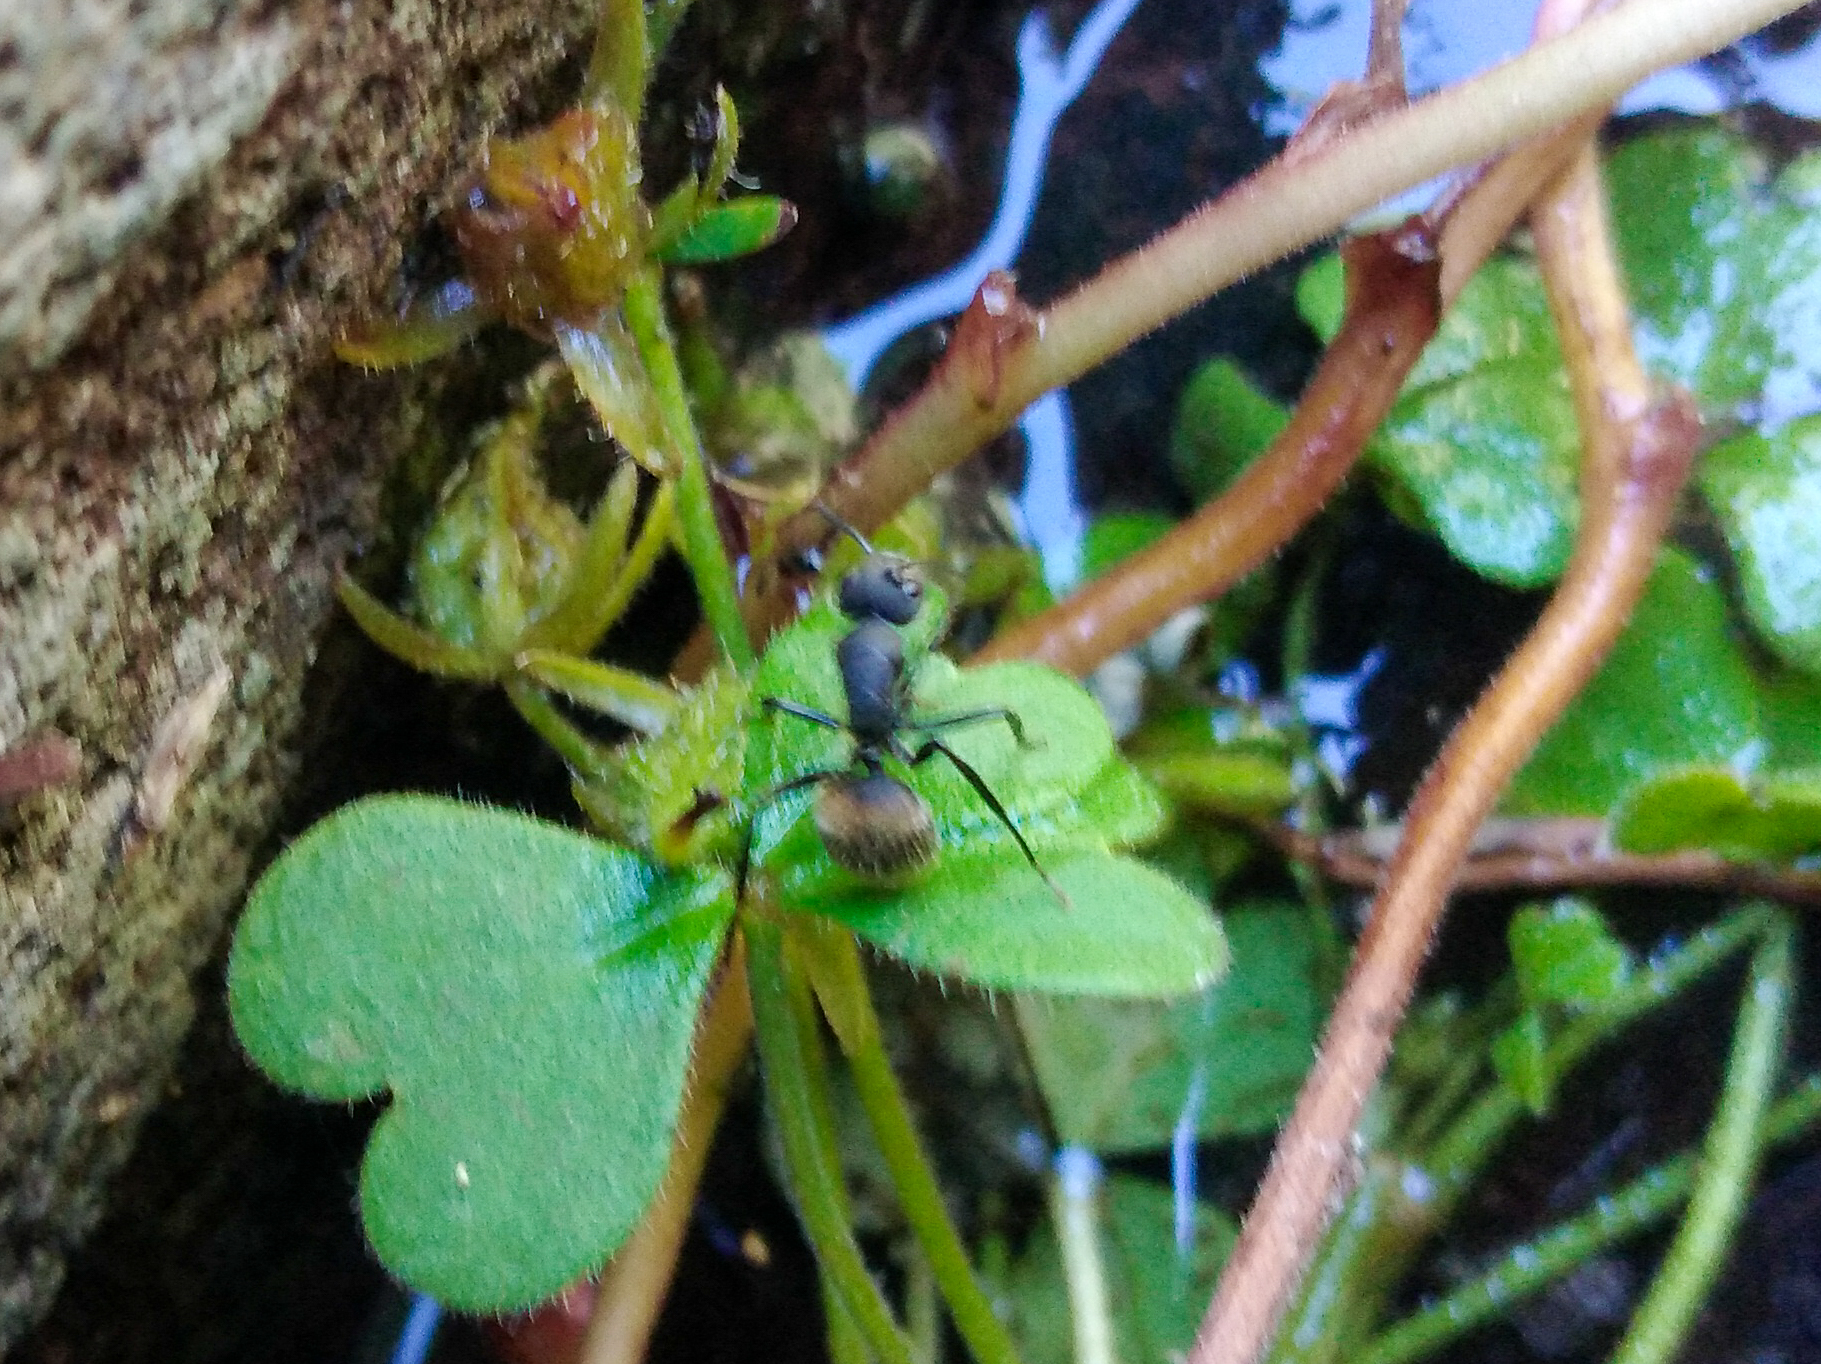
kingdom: Animalia
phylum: Arthropoda
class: Insecta
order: Hymenoptera
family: Formicidae
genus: Camponotus
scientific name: Camponotus mus
